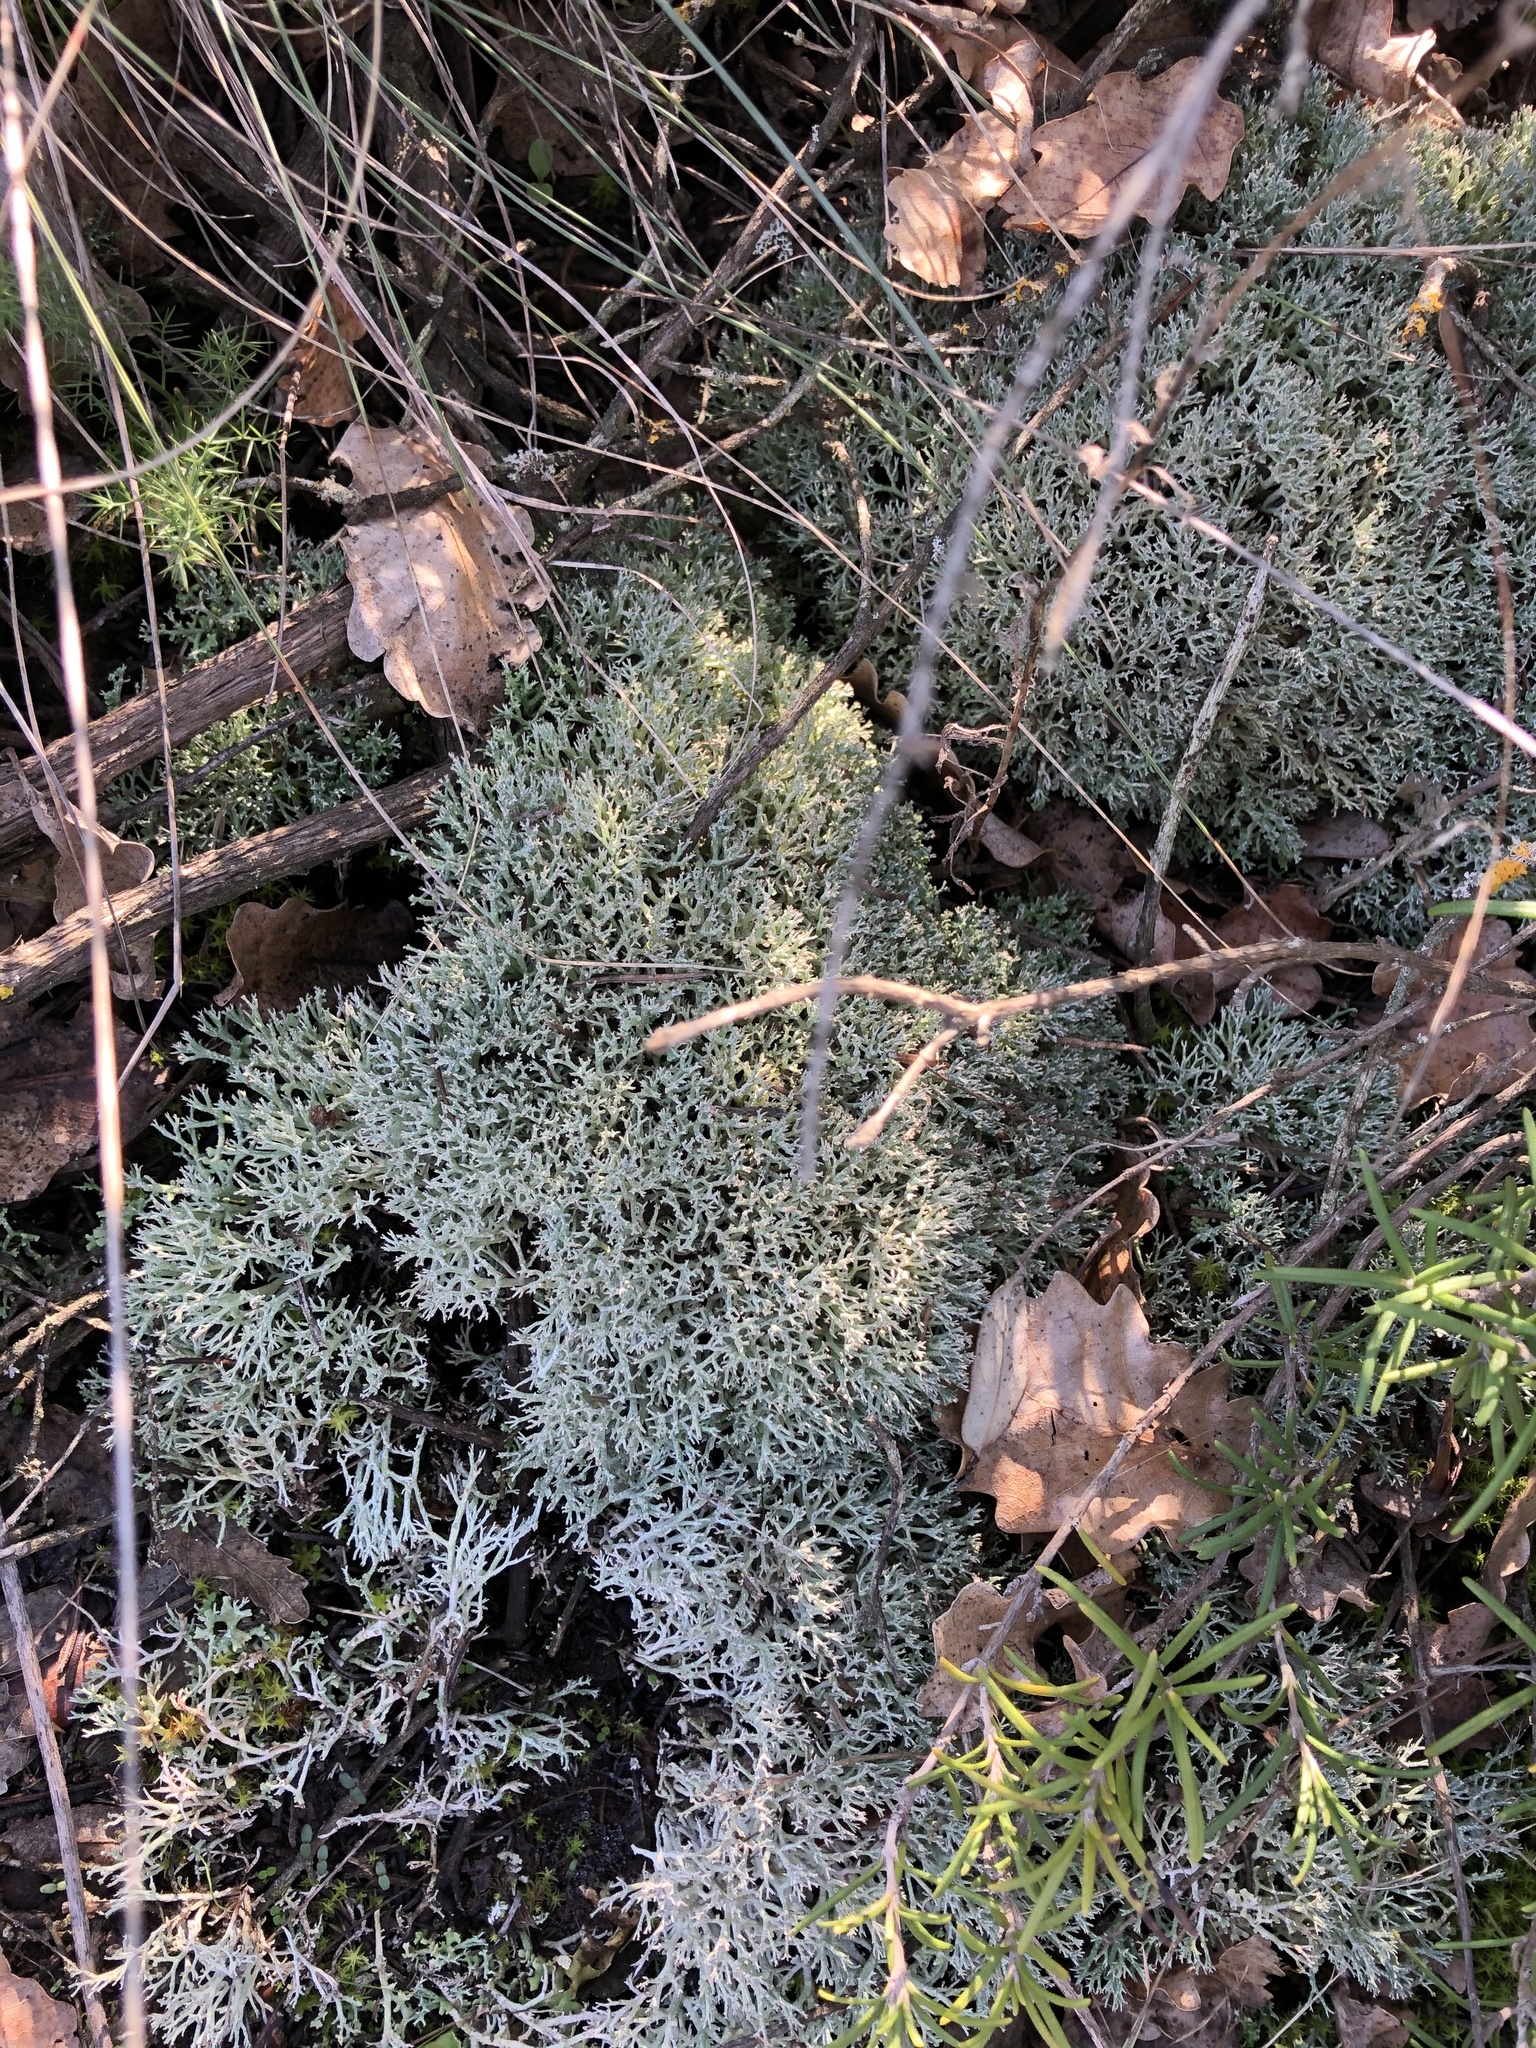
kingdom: Fungi
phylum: Ascomycota
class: Lecanoromycetes
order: Lecanorales
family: Cladoniaceae
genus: Cladonia
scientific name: Cladonia rangiformis
